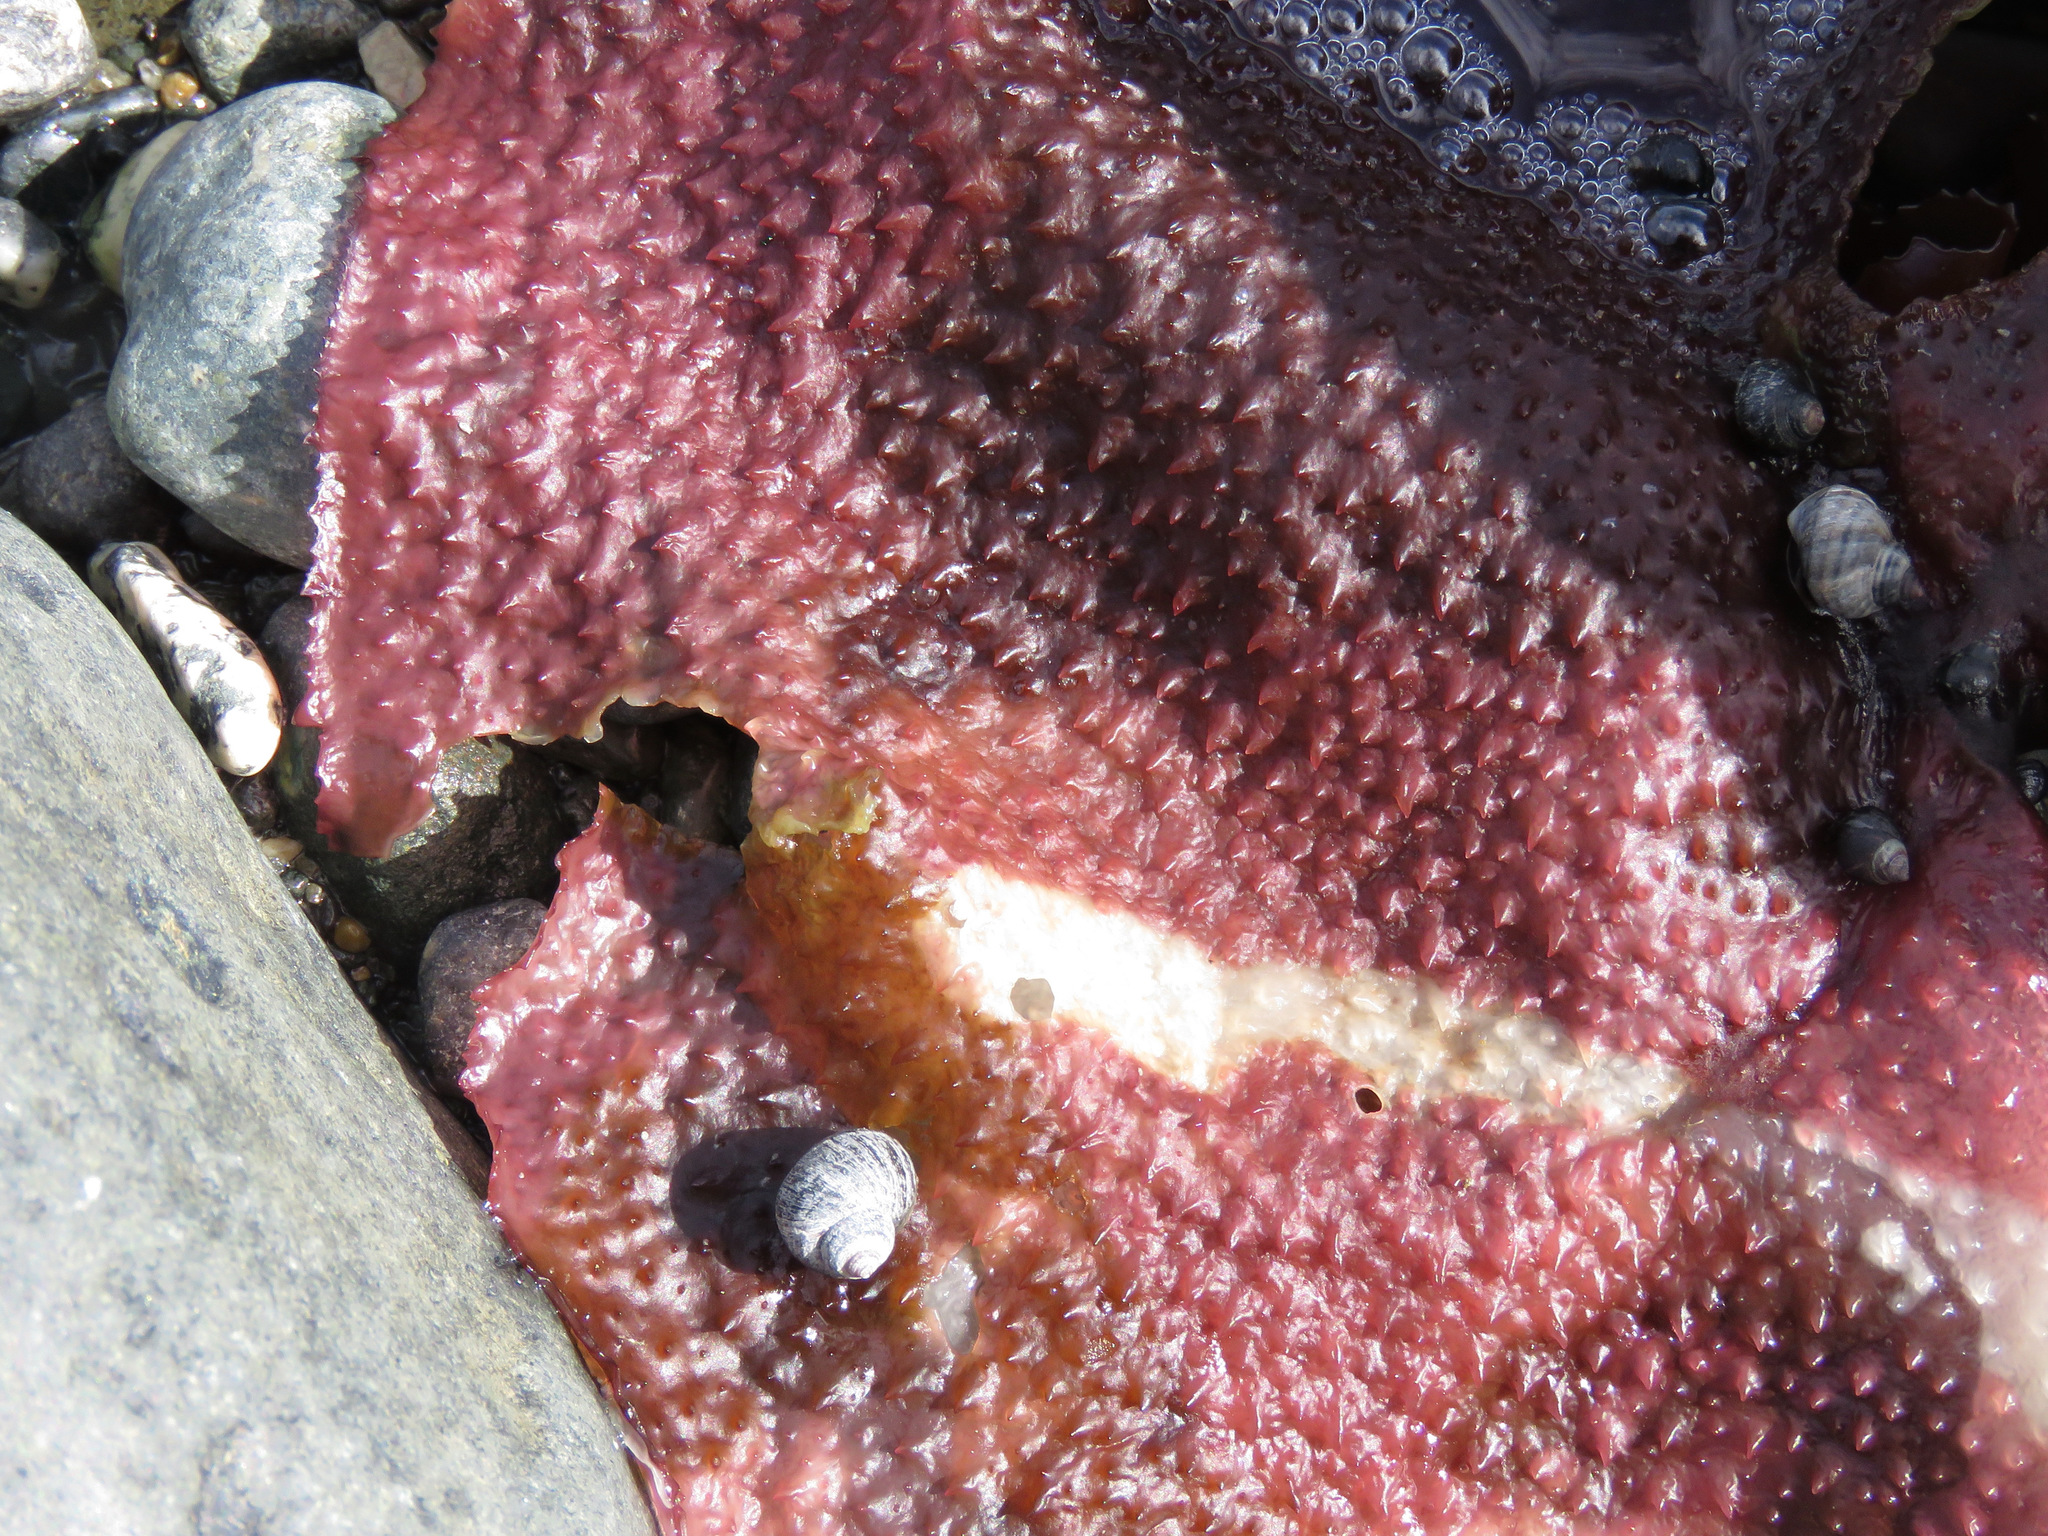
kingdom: Plantae
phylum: Rhodophyta
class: Florideophyceae
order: Gigartinales
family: Gigartinaceae
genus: Chondracanthus
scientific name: Chondracanthus exasperatus
